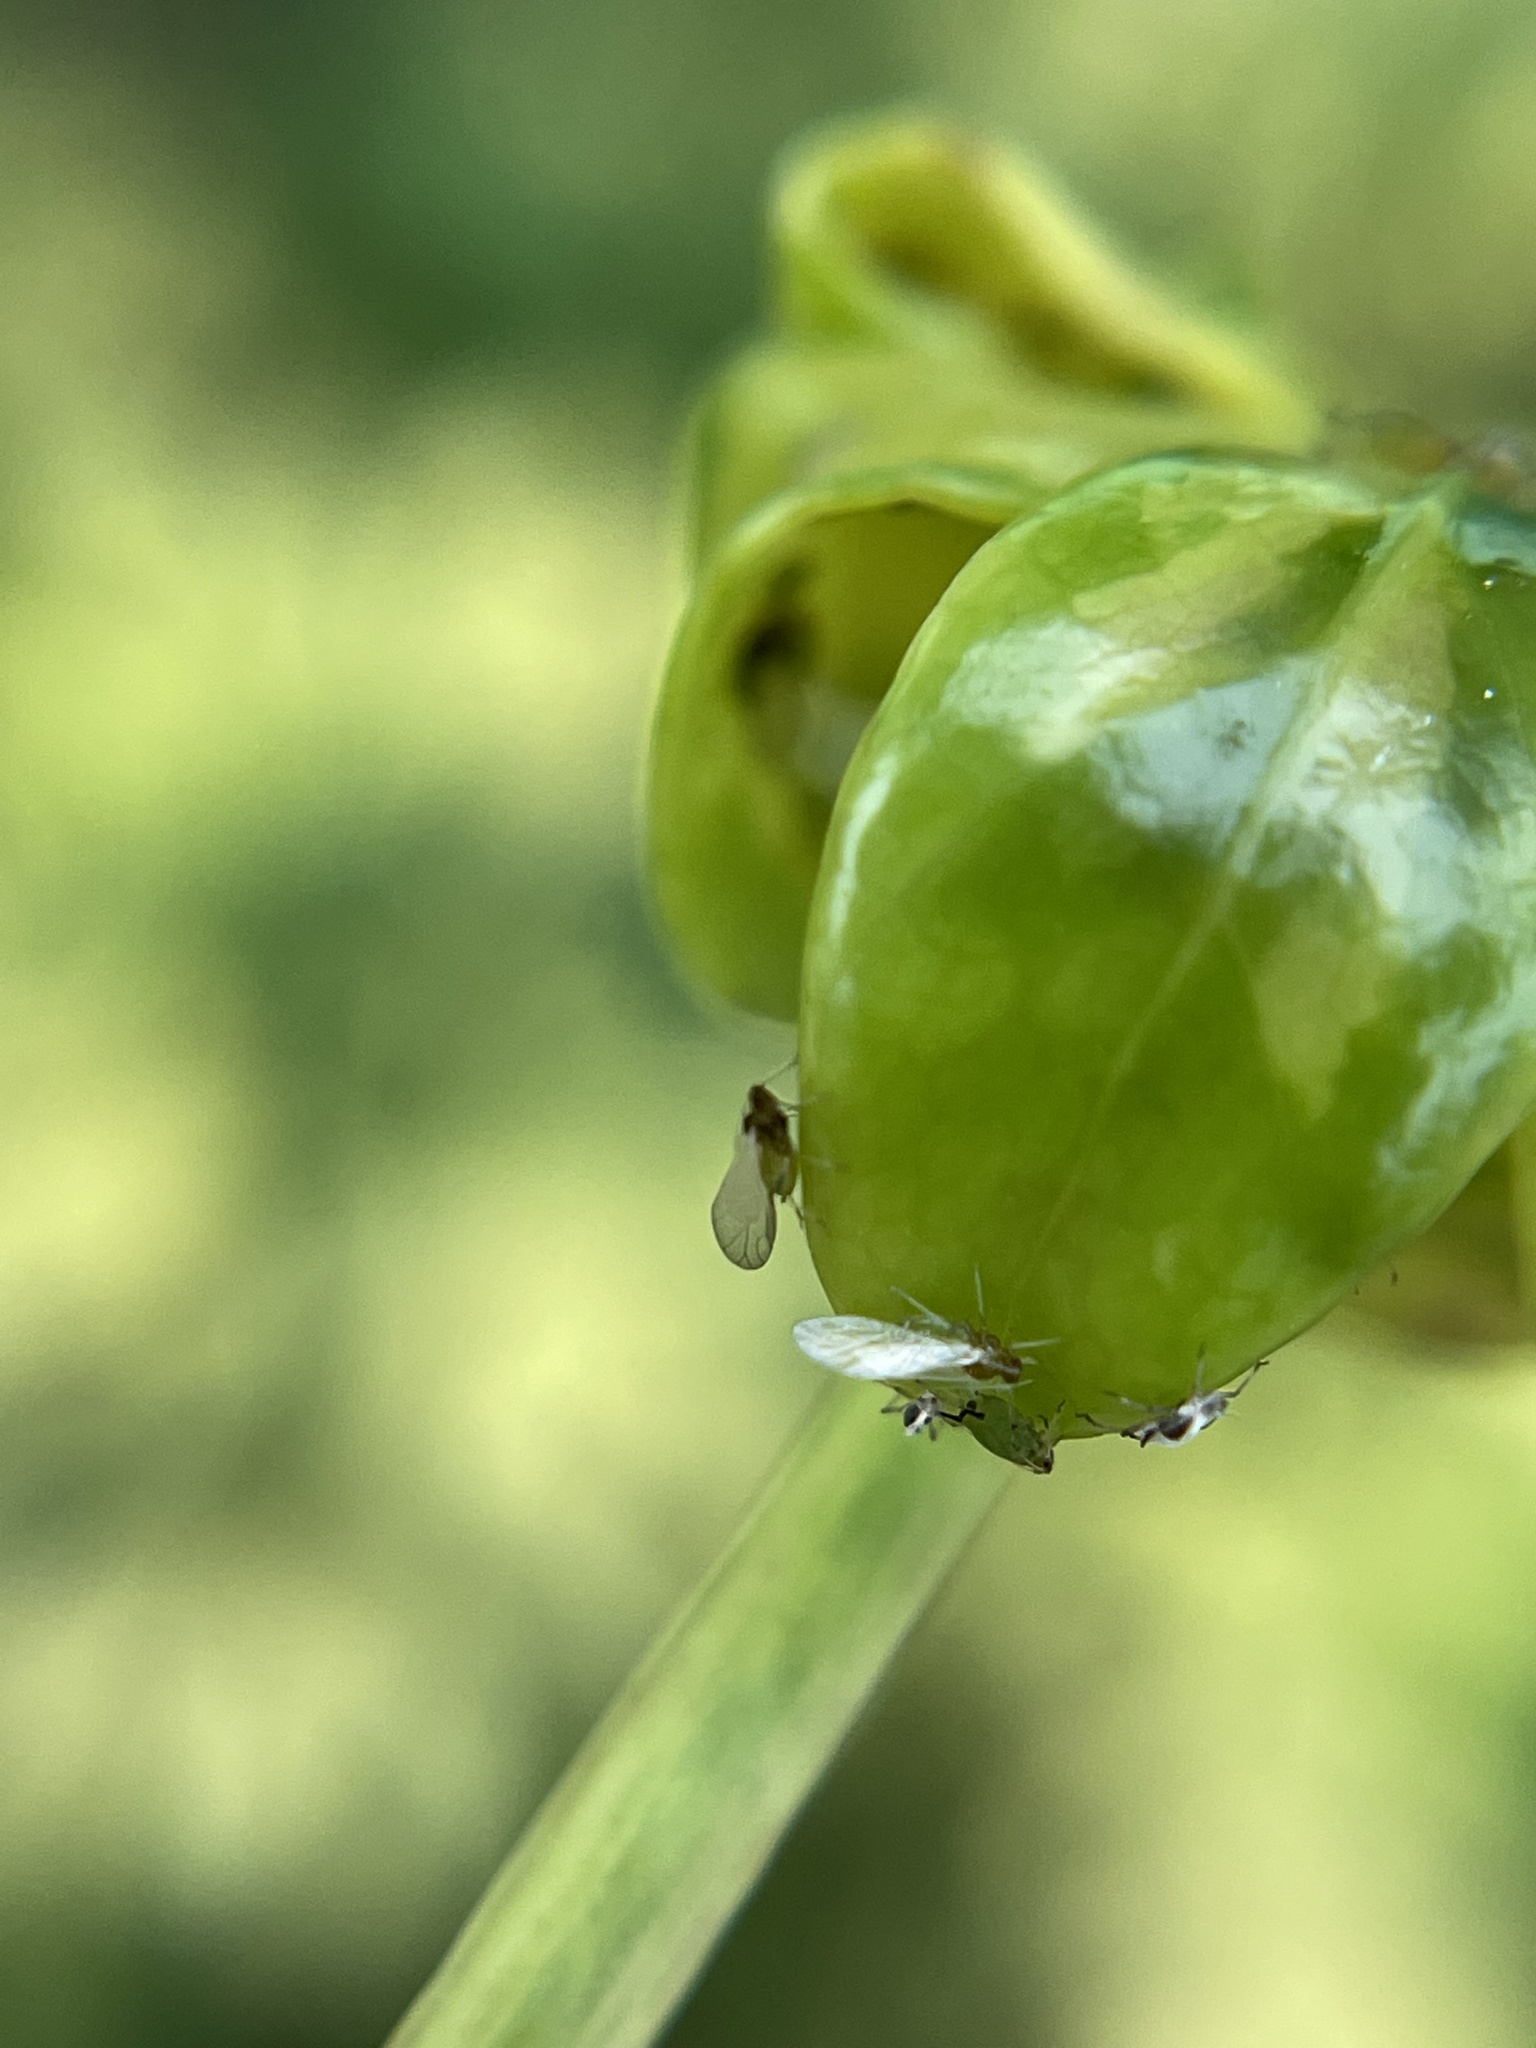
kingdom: Animalia
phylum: Arthropoda
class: Insecta
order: Hemiptera
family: Aphididae
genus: Aphis
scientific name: Aphis spiraecola
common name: Spirea aphid
